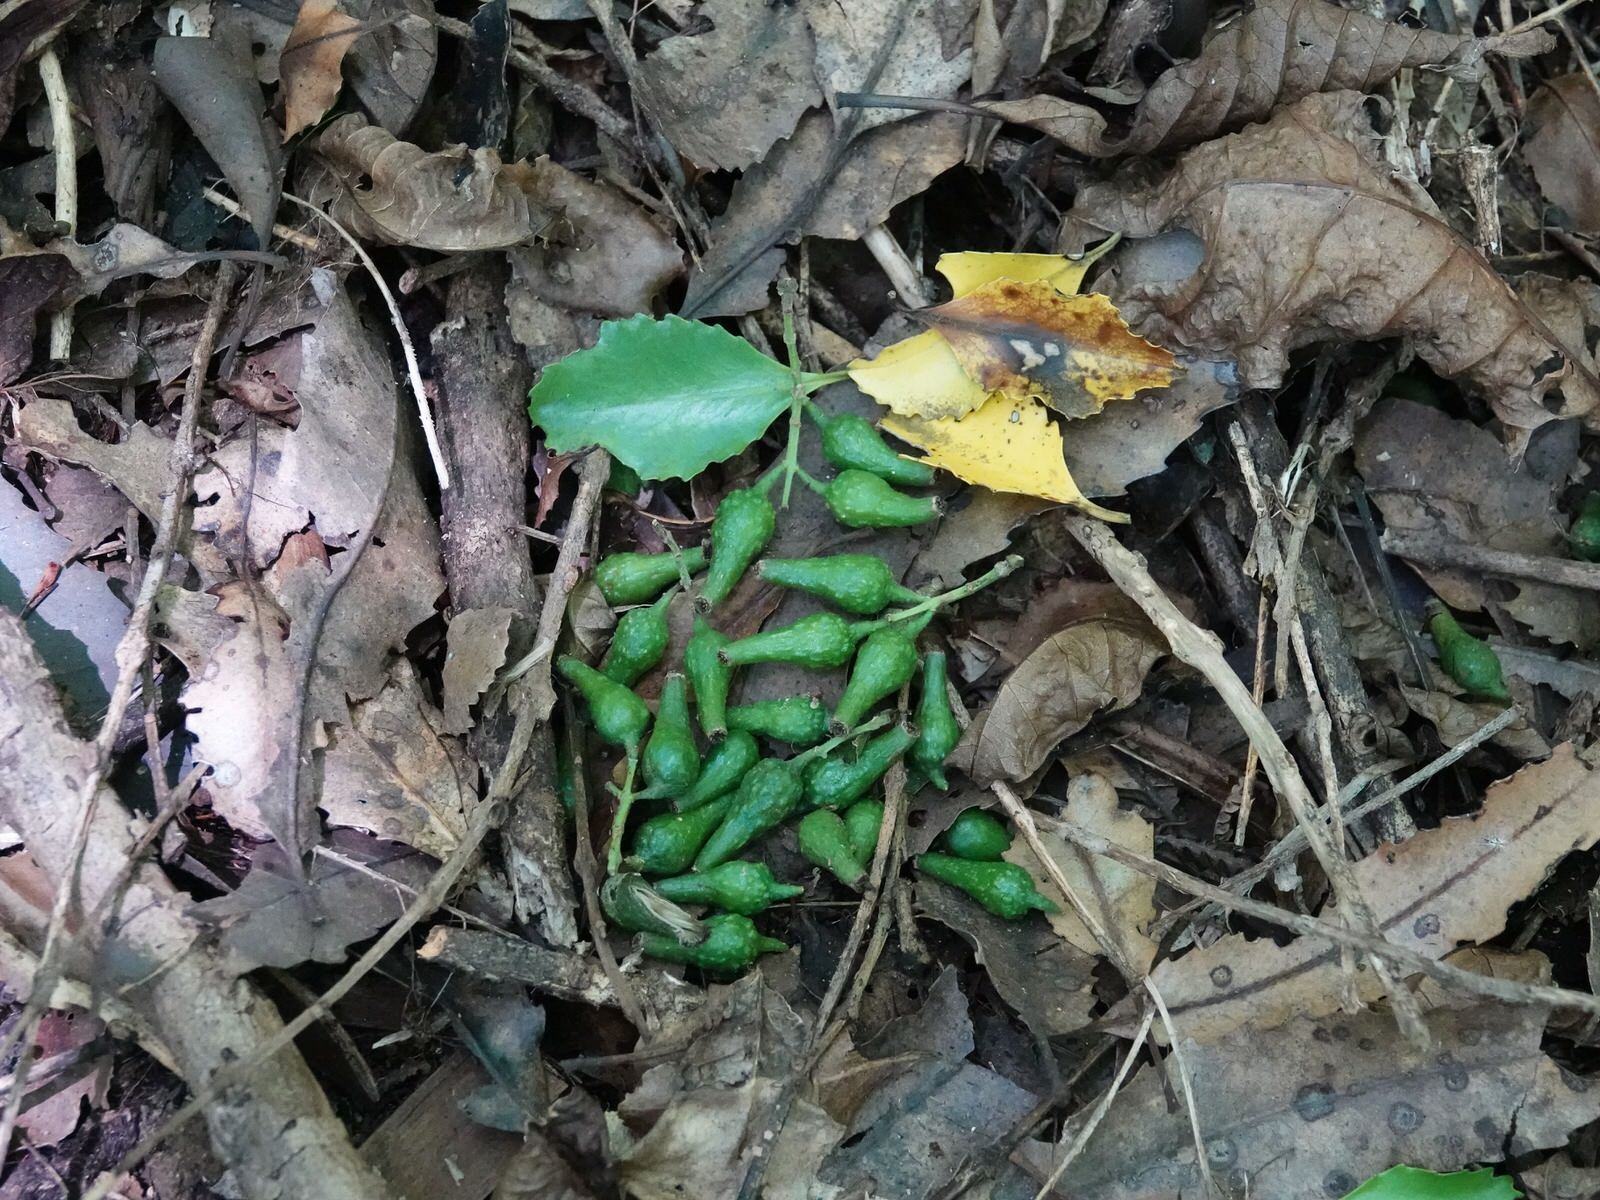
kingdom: Plantae
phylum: Tracheophyta
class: Magnoliopsida
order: Laurales
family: Atherospermataceae
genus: Laurelia
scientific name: Laurelia novae-zelandiae
